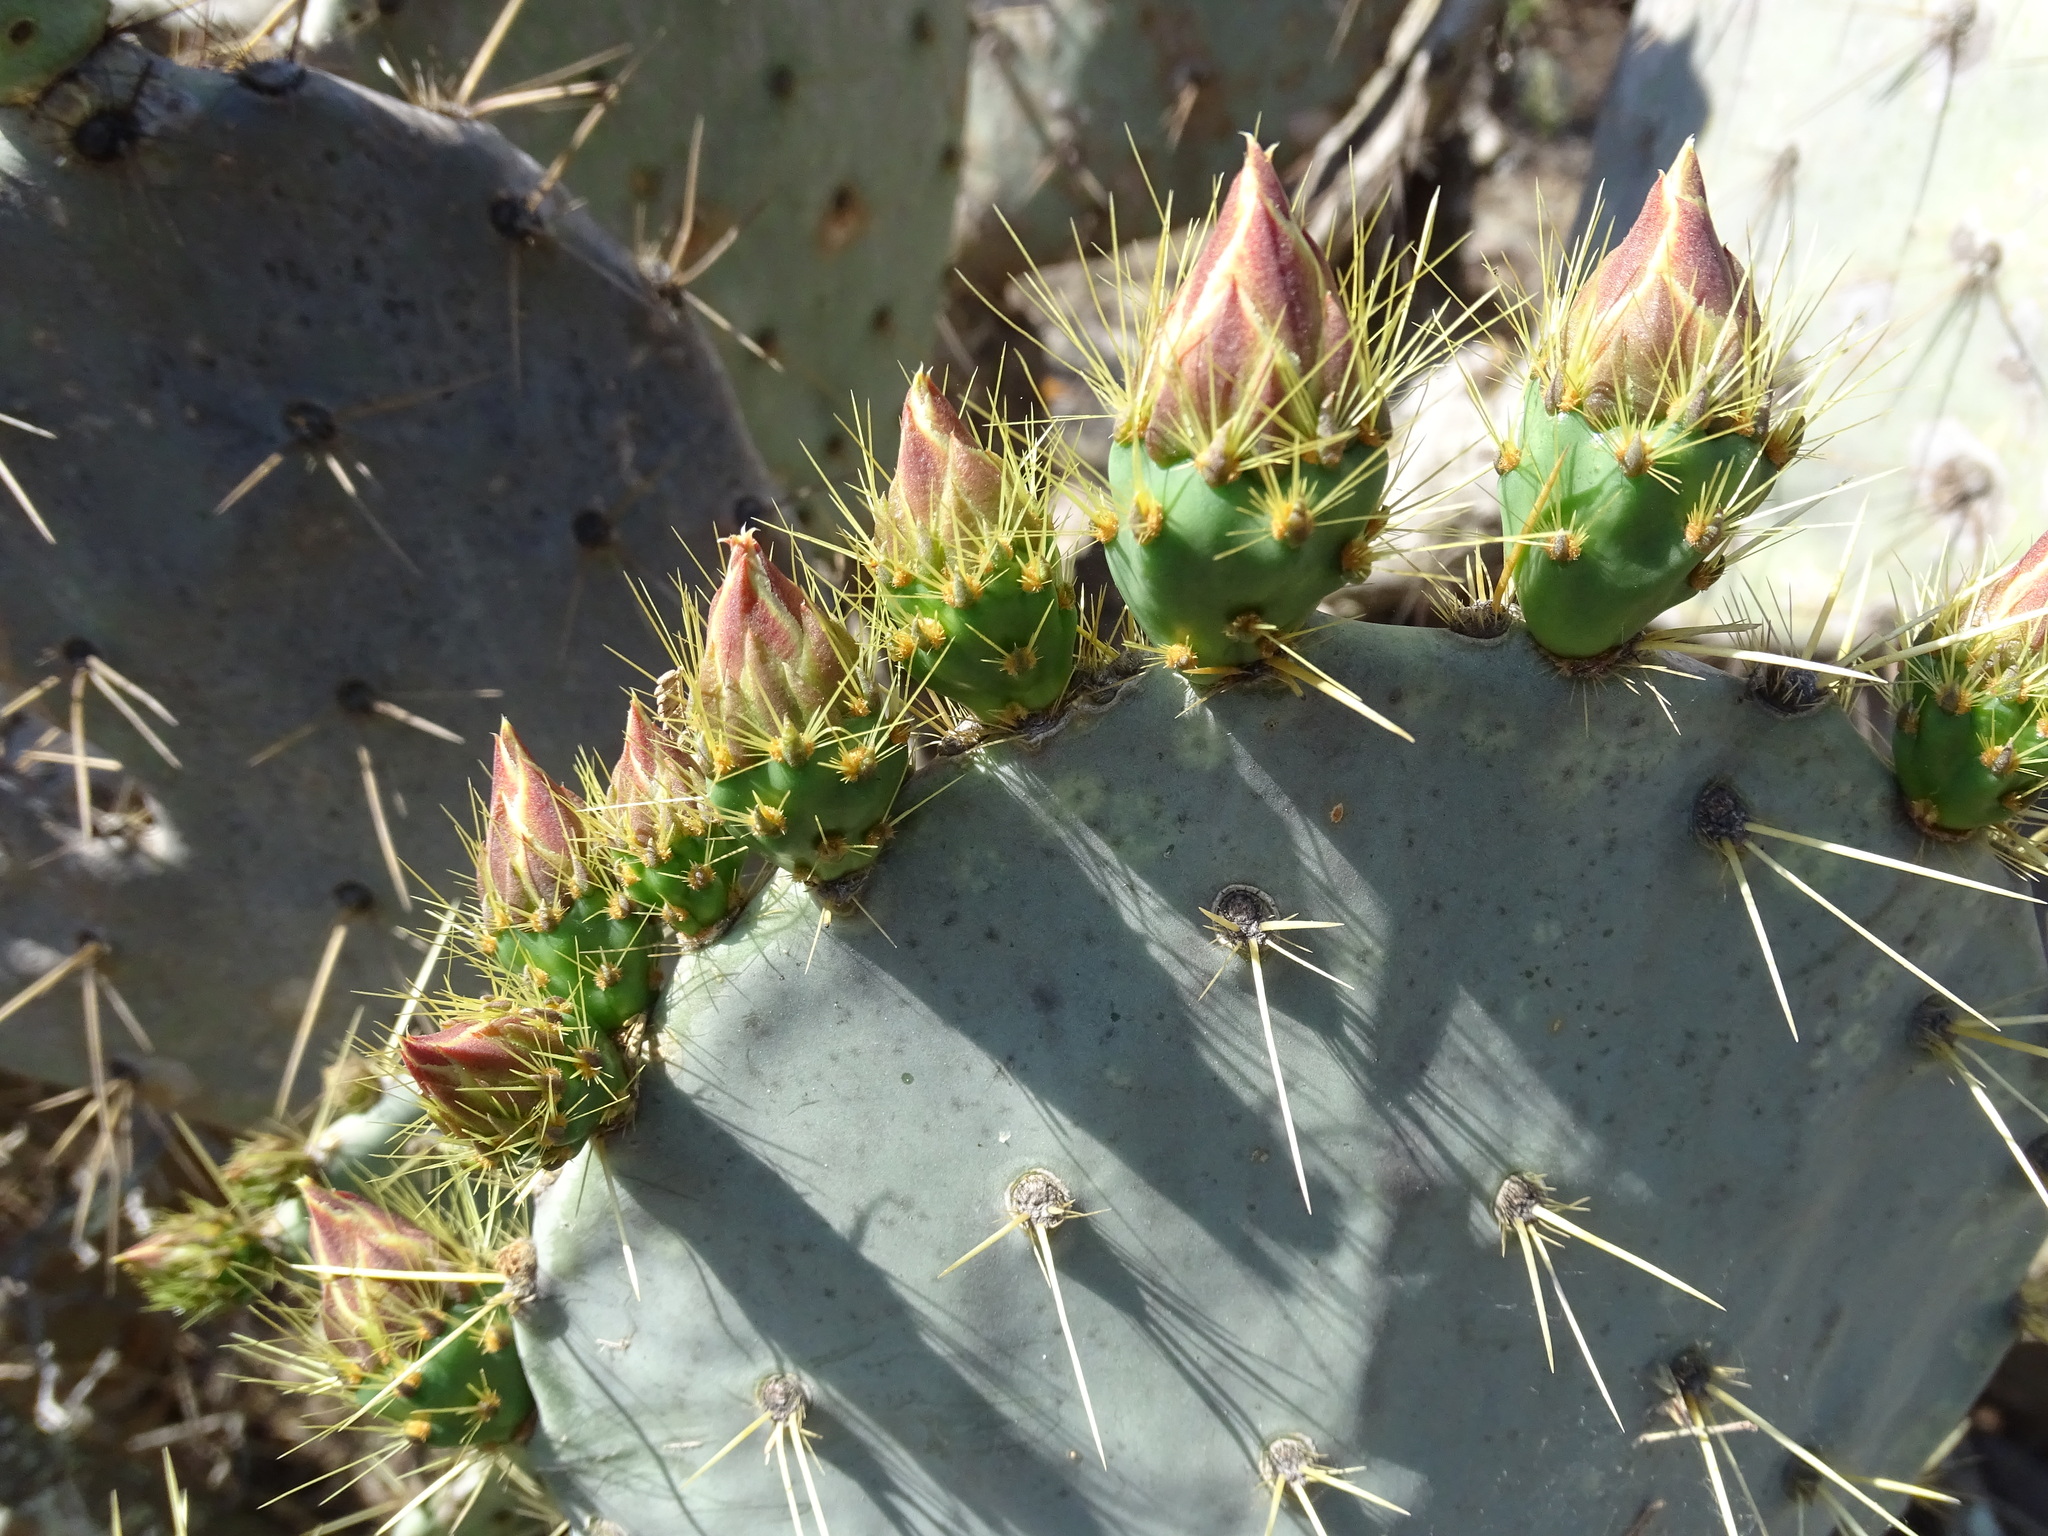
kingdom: Plantae
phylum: Tracheophyta
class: Magnoliopsida
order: Caryophyllales
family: Cactaceae
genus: Opuntia
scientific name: Opuntia robusta
